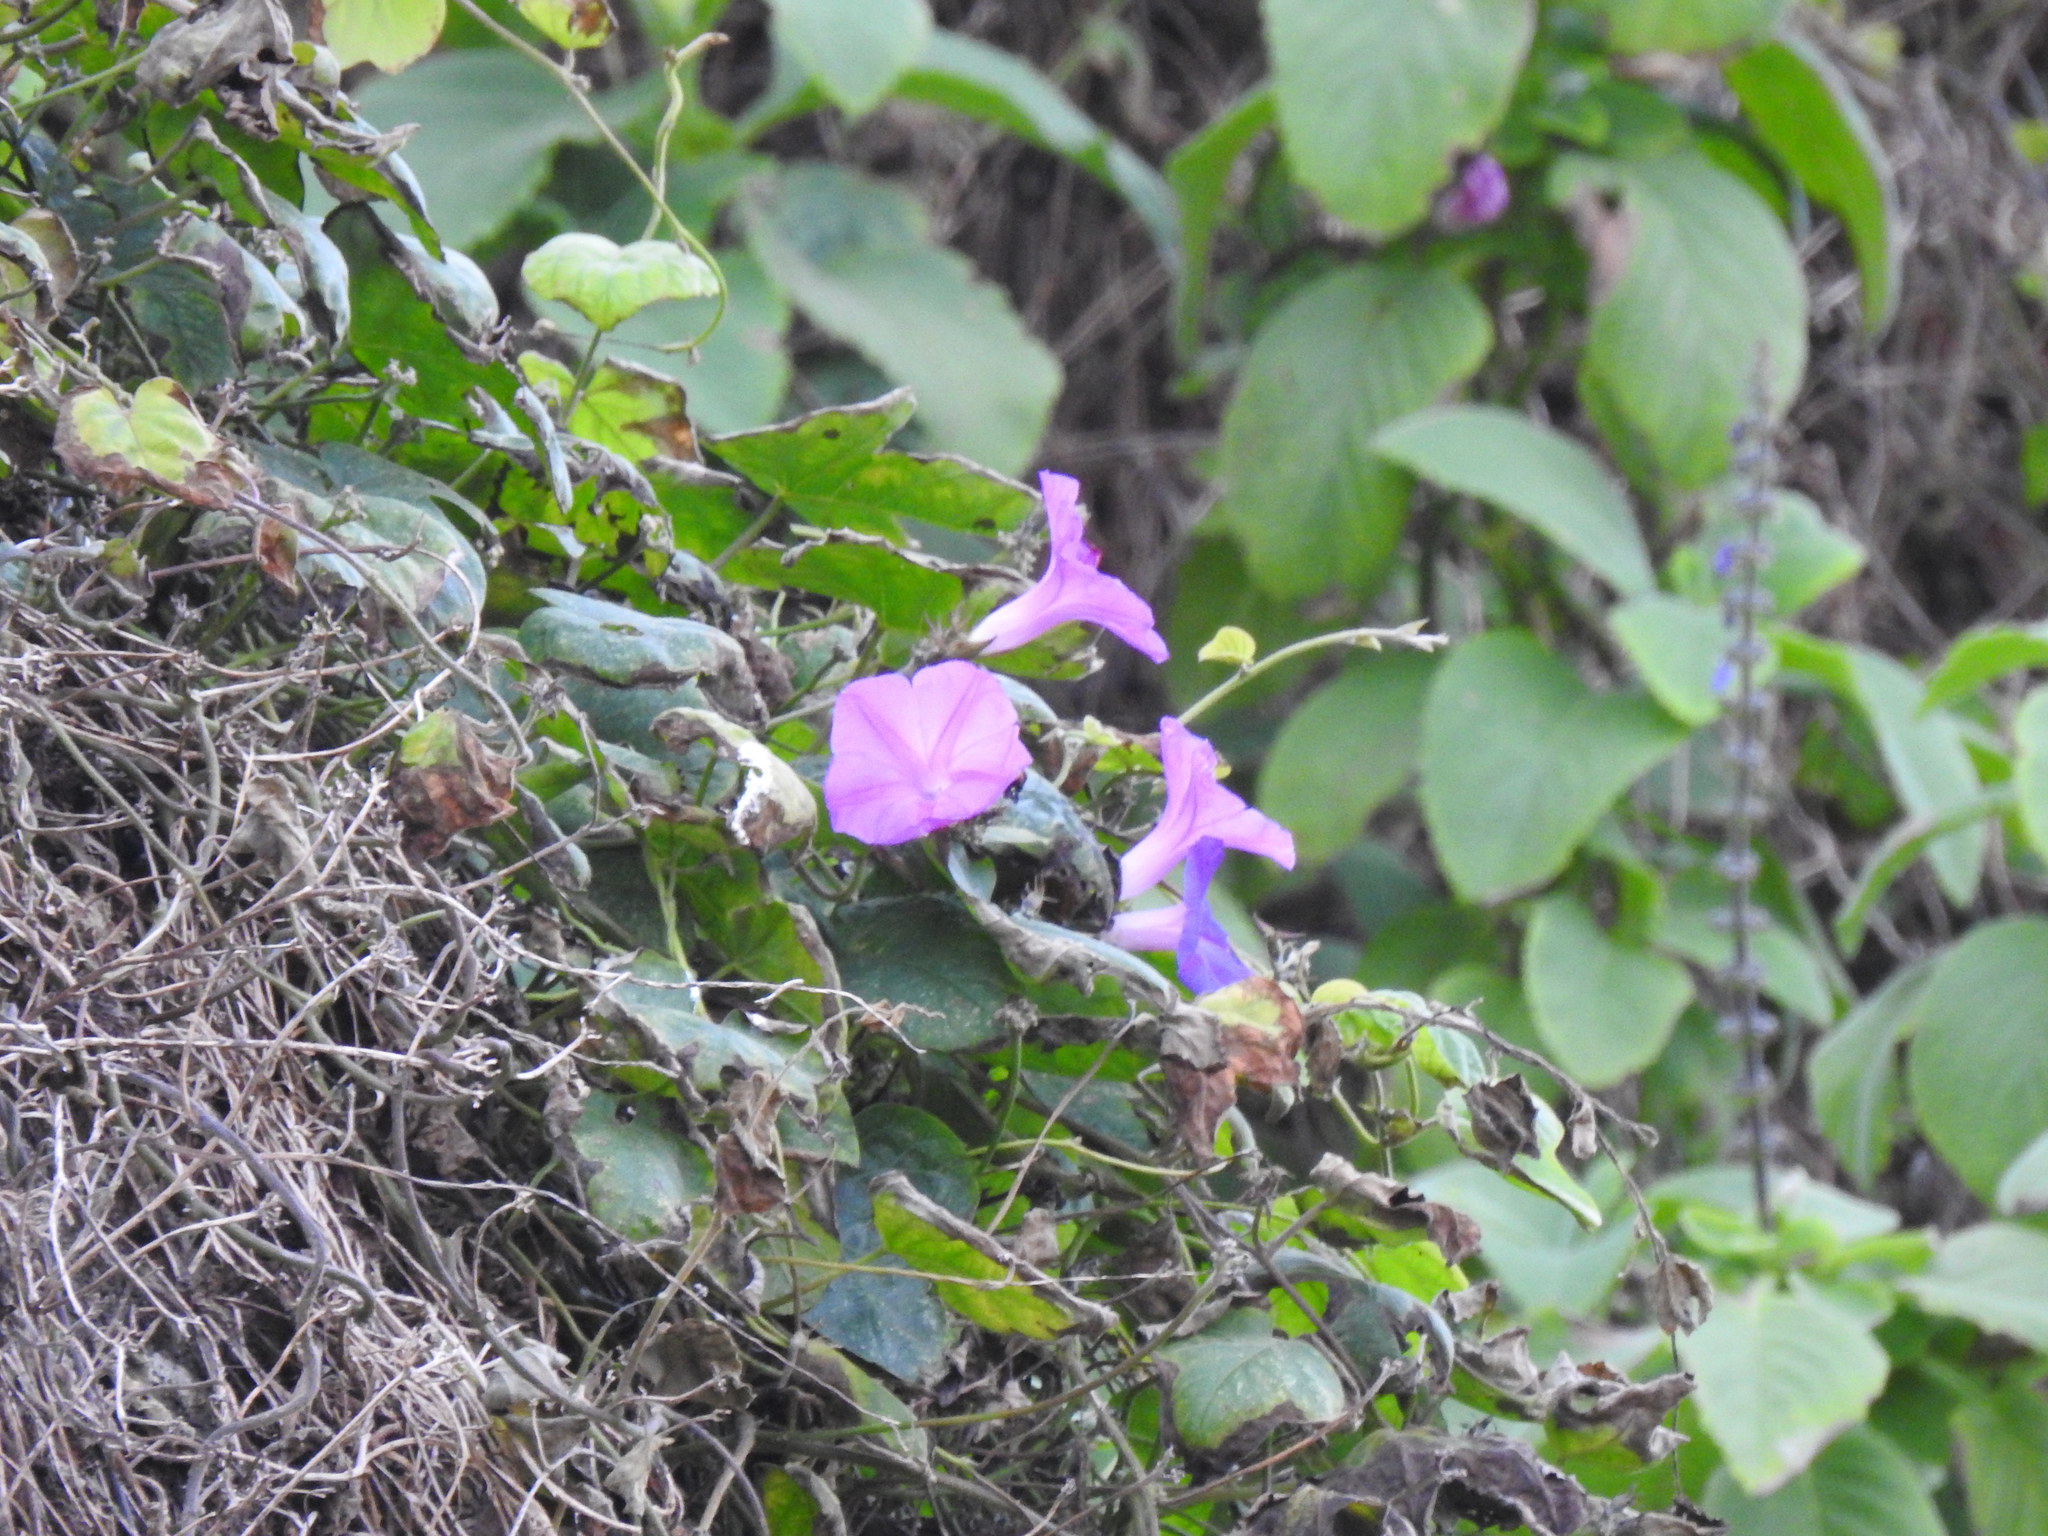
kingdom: Plantae
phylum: Tracheophyta
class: Magnoliopsida
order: Solanales
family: Convolvulaceae
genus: Ipomoea
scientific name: Ipomoea indica
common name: Blue dawnflower
